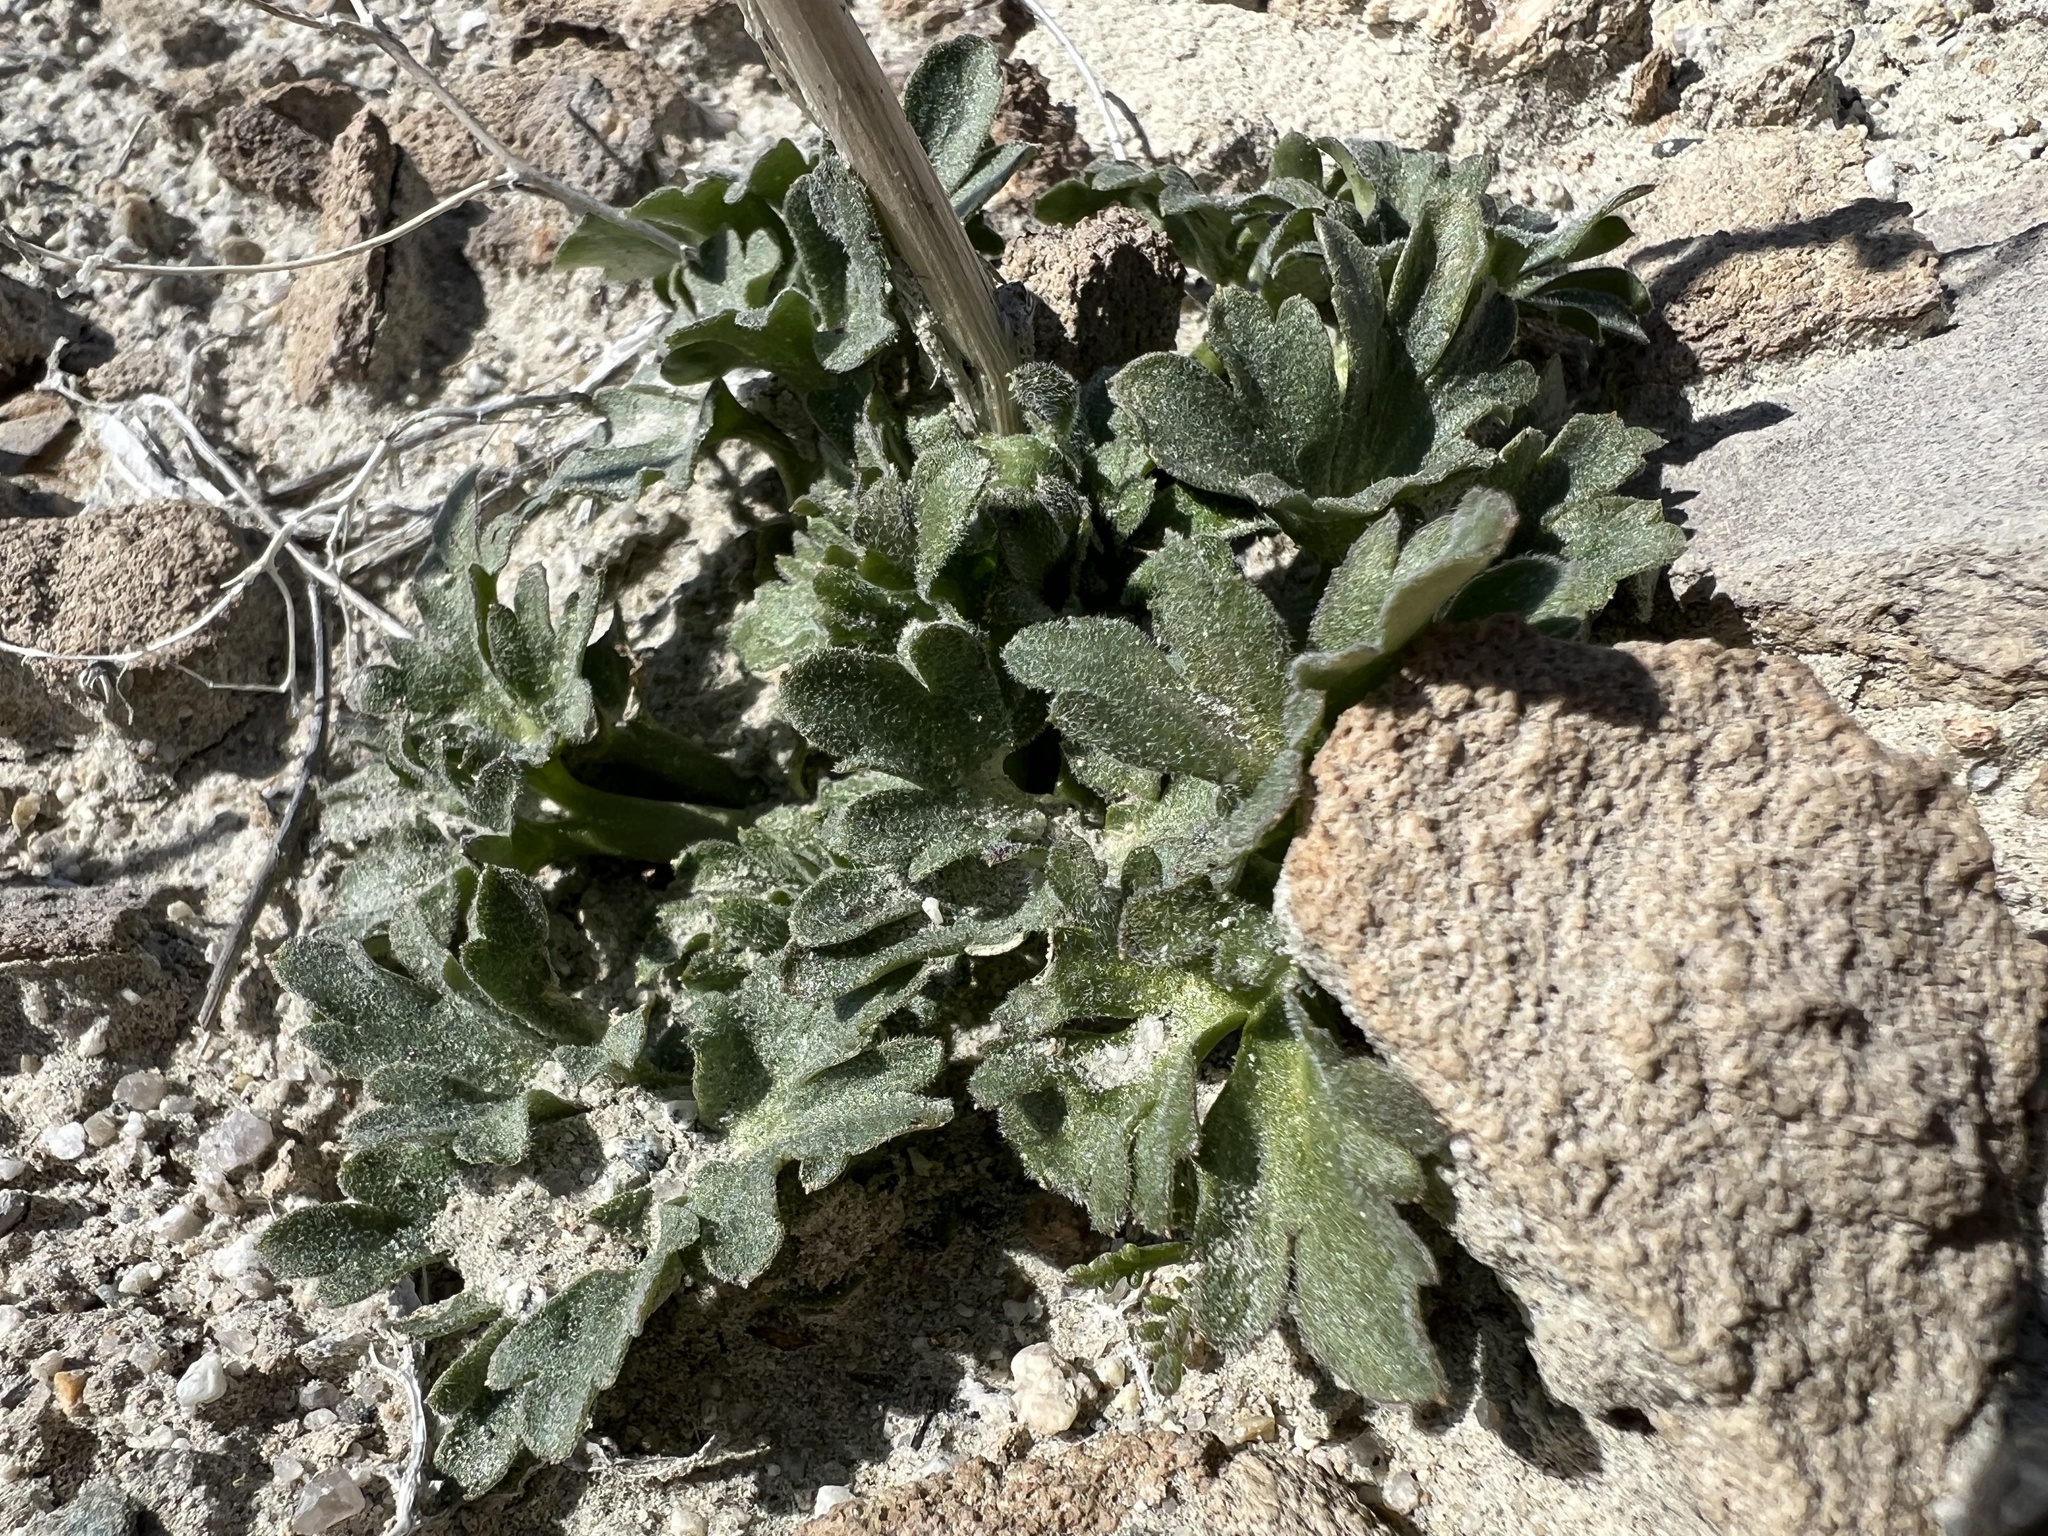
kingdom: Plantae
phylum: Tracheophyta
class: Magnoliopsida
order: Ranunculales
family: Ranunculaceae
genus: Delphinium
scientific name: Delphinium parishii
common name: Apache larkspur
